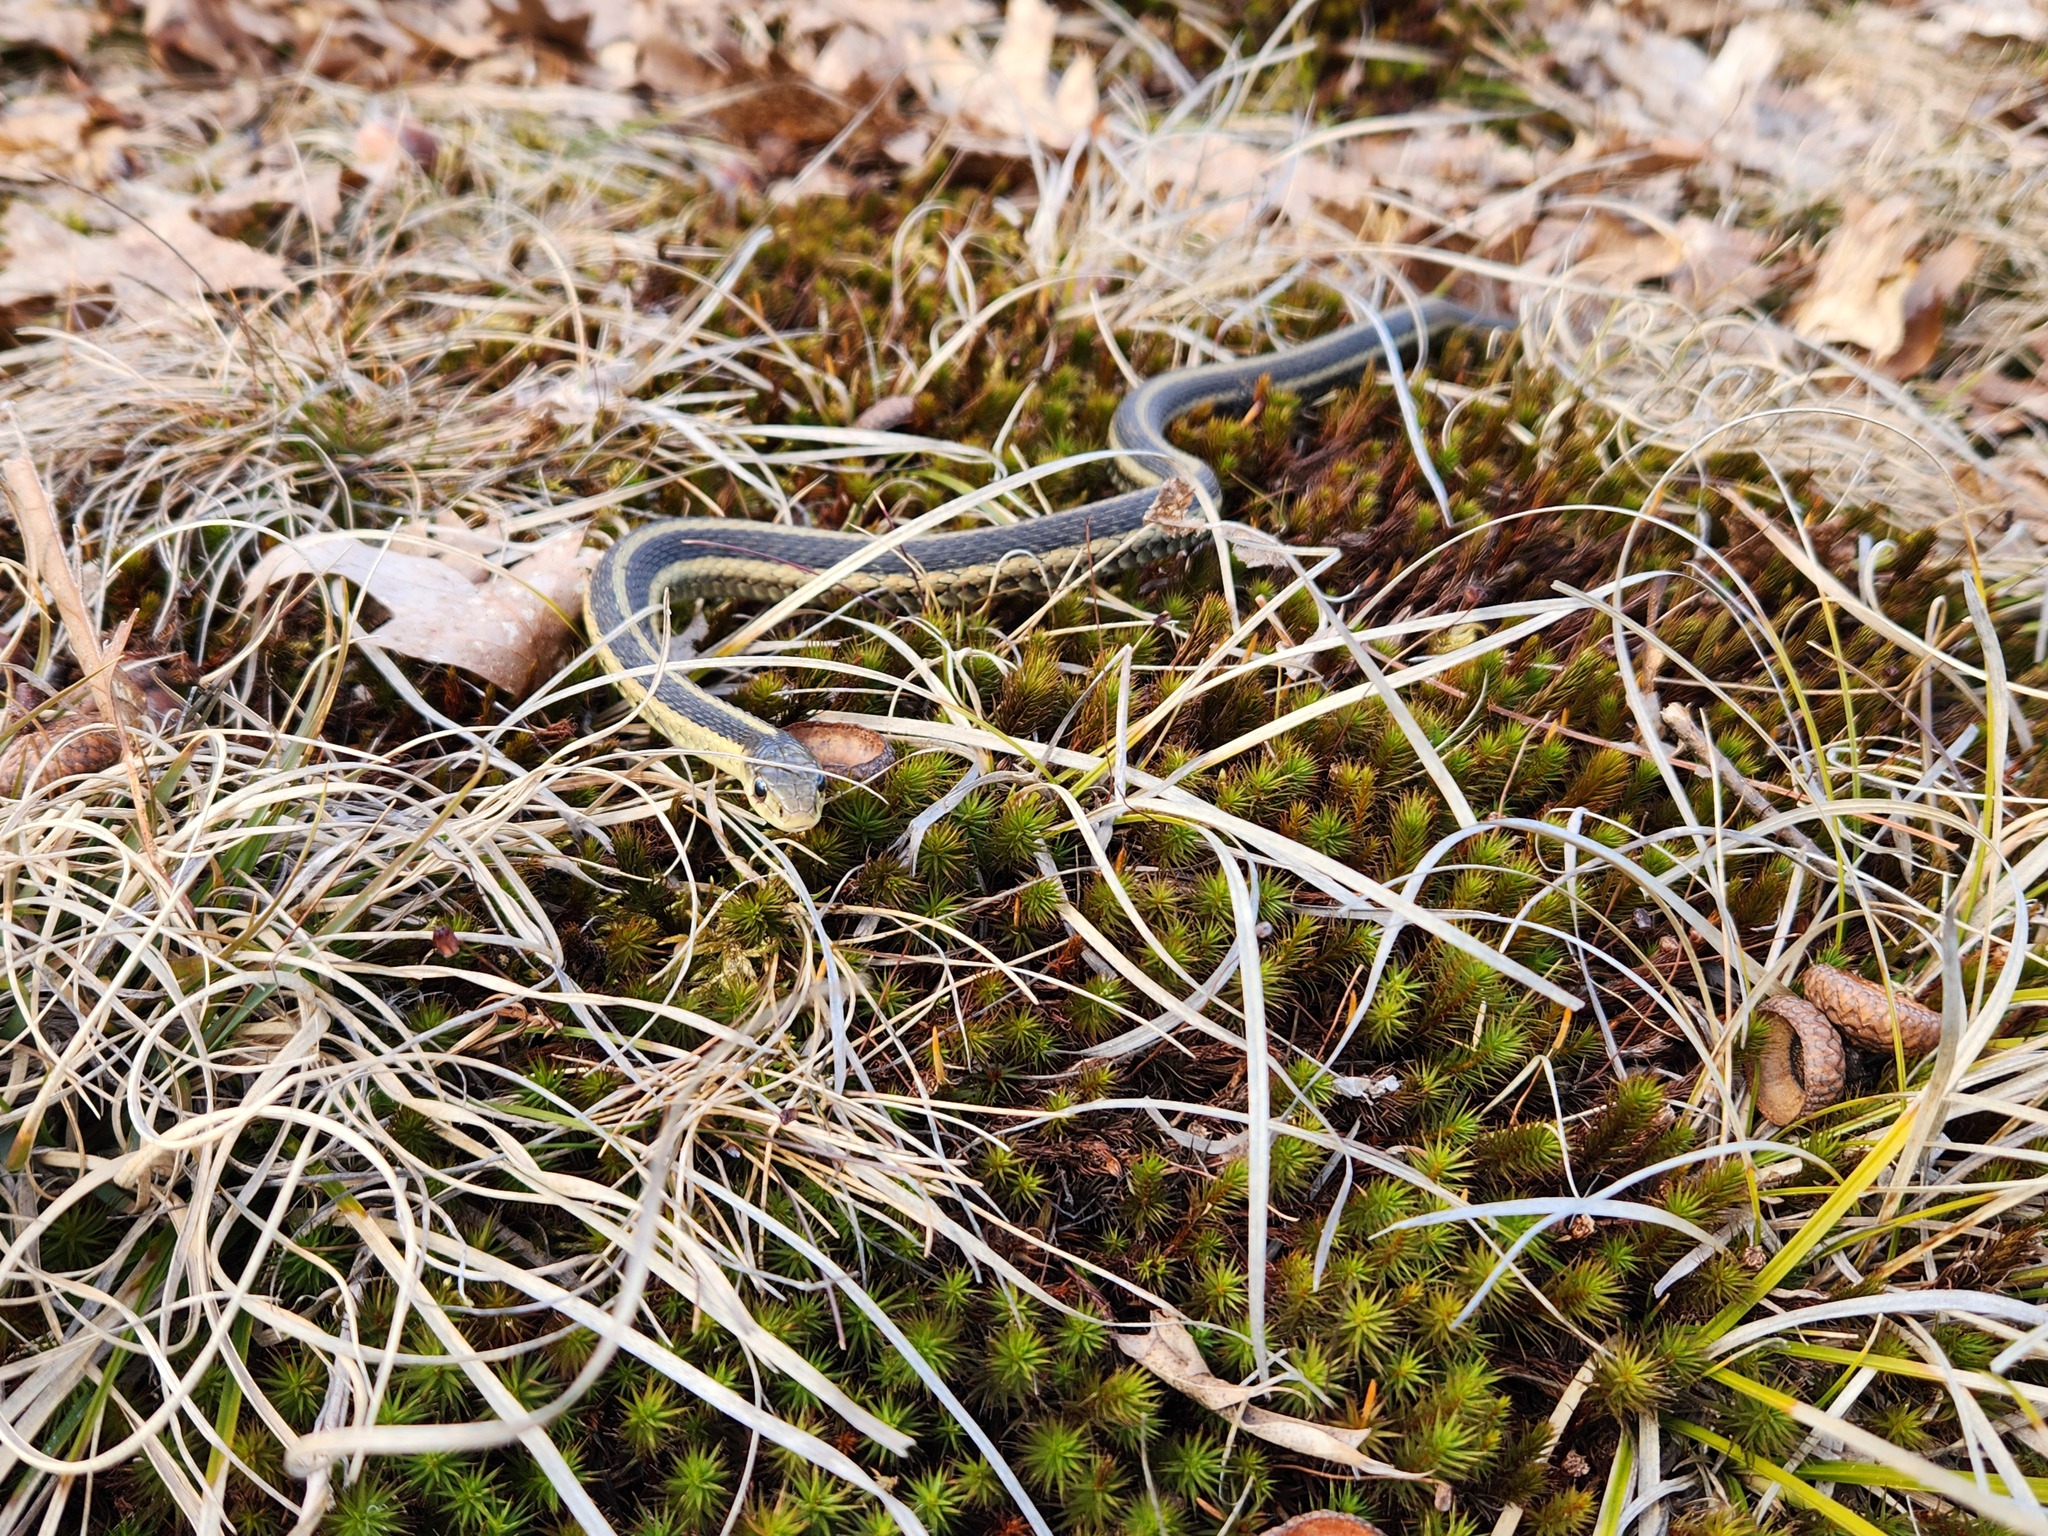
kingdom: Animalia
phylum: Chordata
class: Squamata
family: Colubridae
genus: Thamnophis
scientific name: Thamnophis sirtalis
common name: Common garter snake
